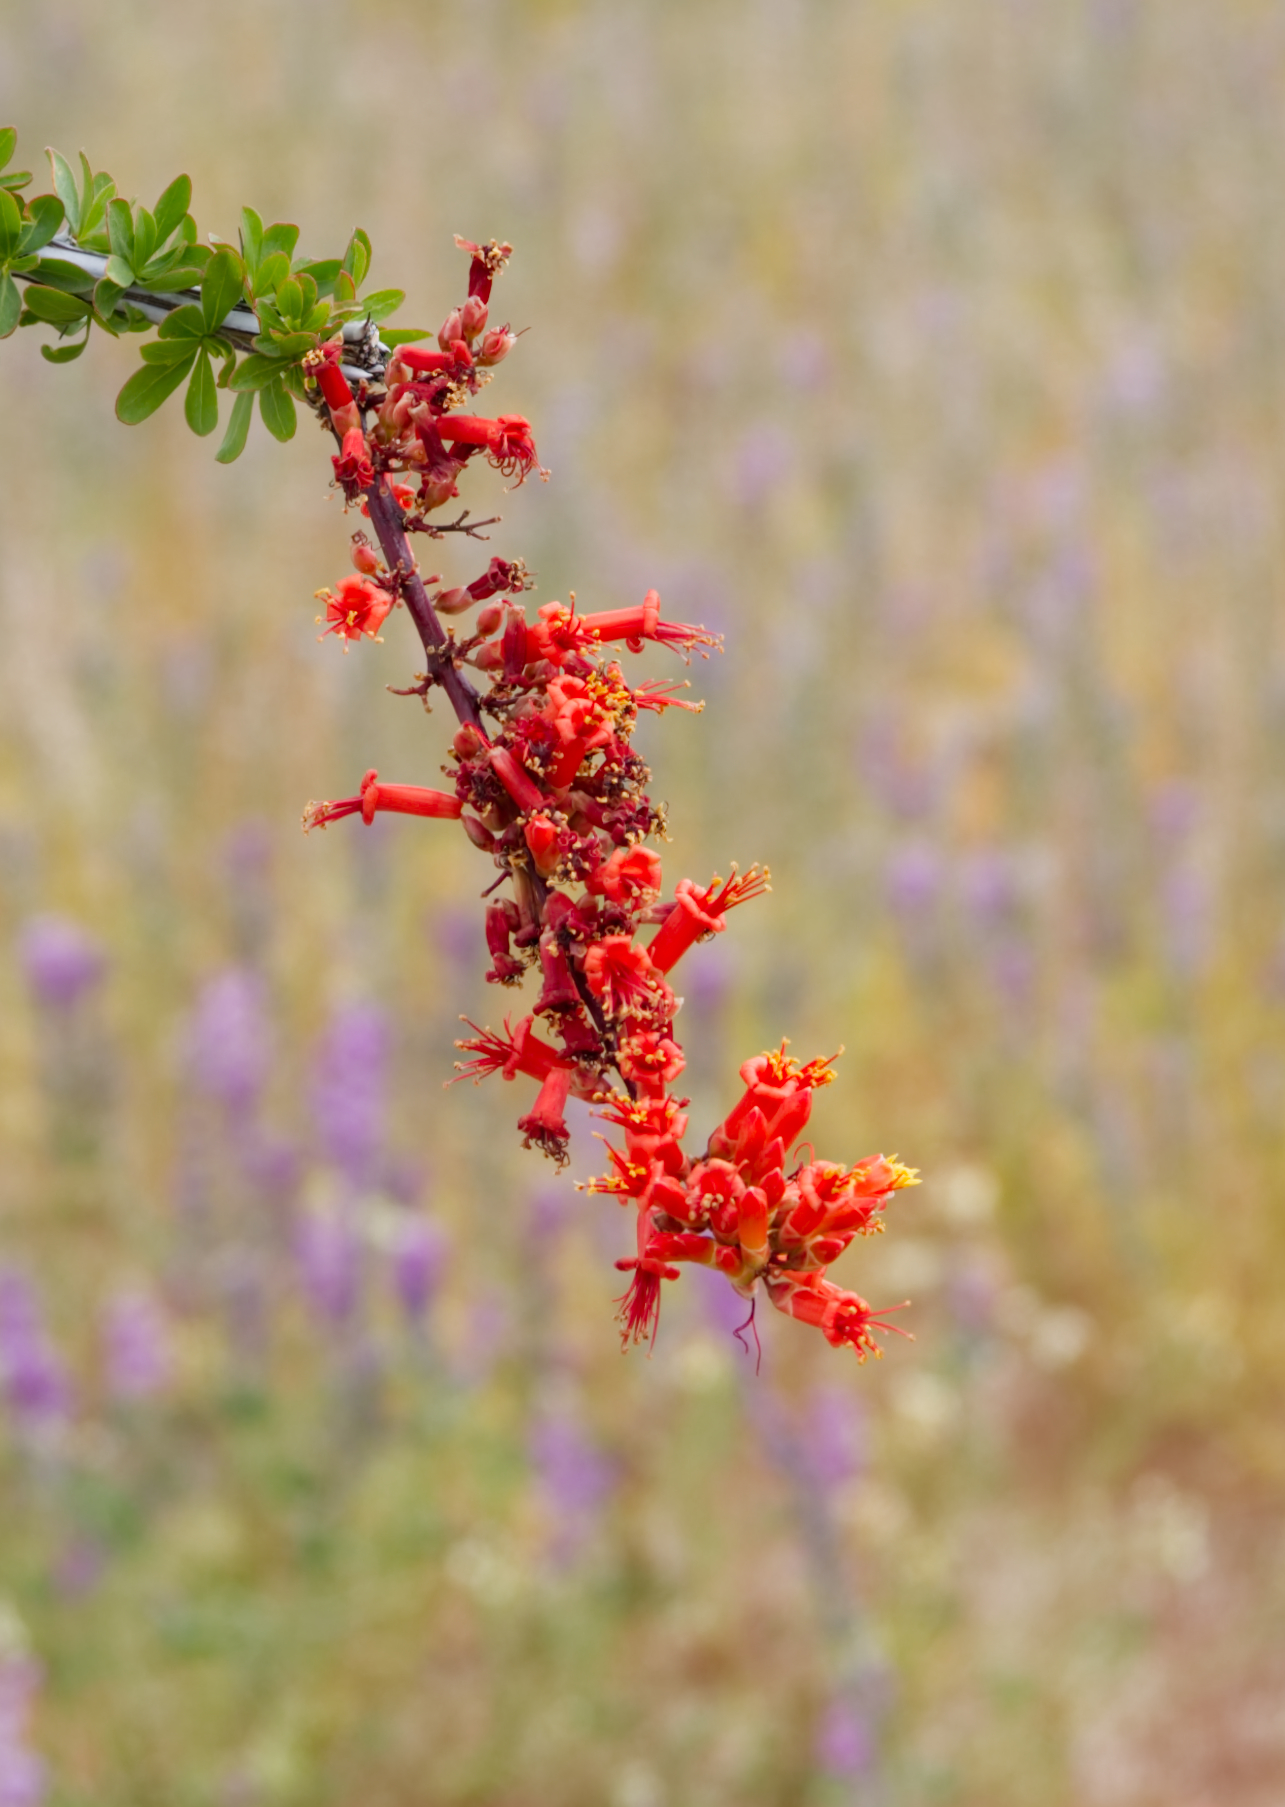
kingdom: Plantae
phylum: Tracheophyta
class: Magnoliopsida
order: Ericales
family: Fouquieriaceae
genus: Fouquieria
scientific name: Fouquieria splendens
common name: Vine-cactus
